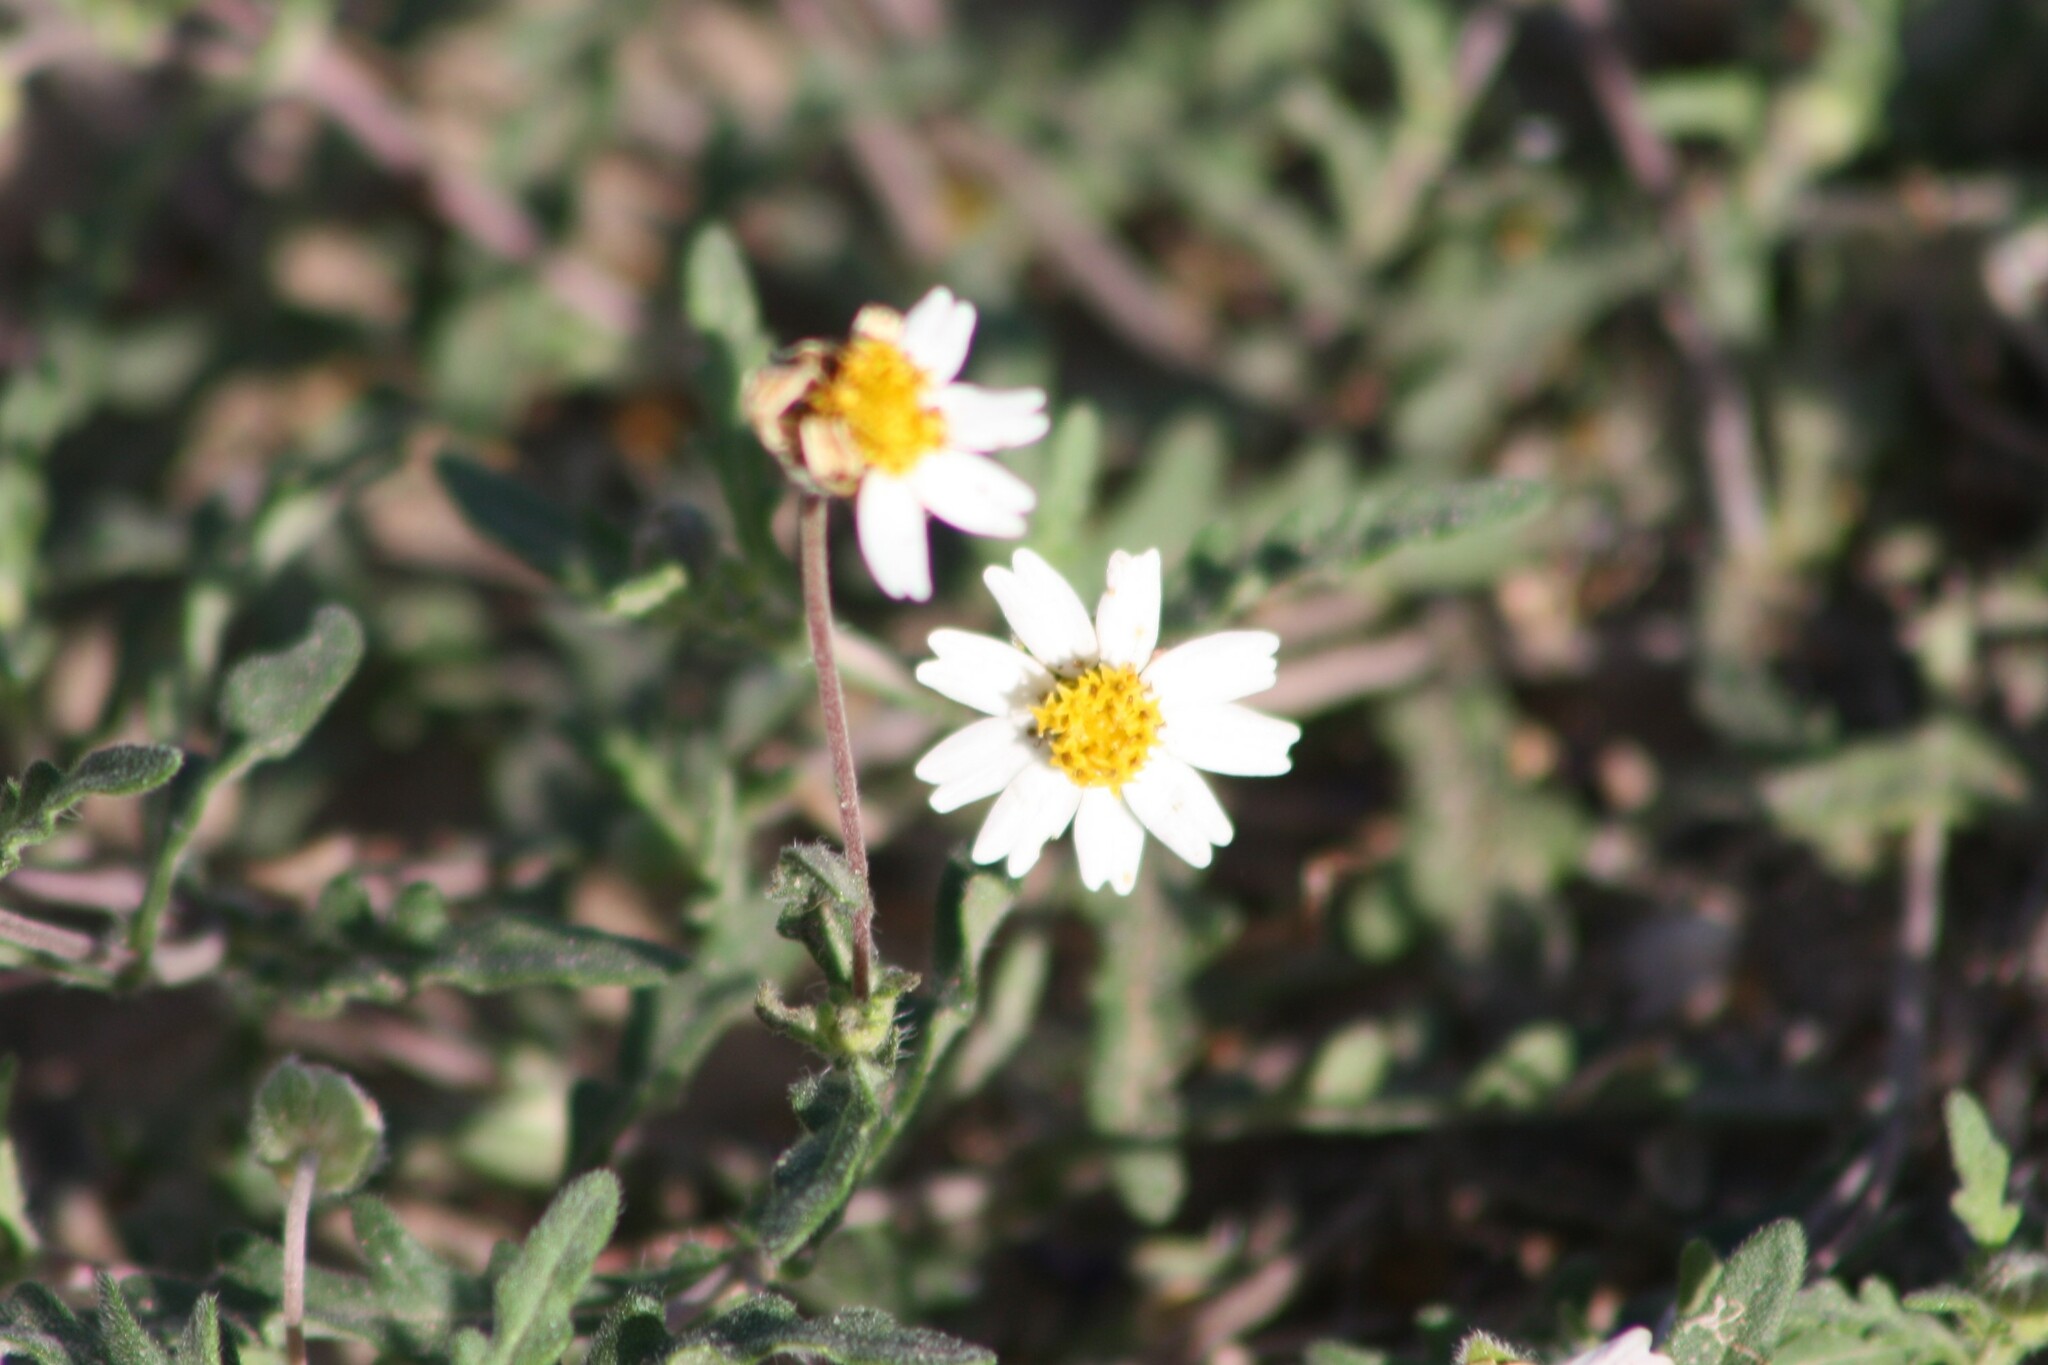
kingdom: Plantae
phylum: Tracheophyta
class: Magnoliopsida
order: Asterales
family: Asteraceae
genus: Melampodium
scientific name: Melampodium cinereum
